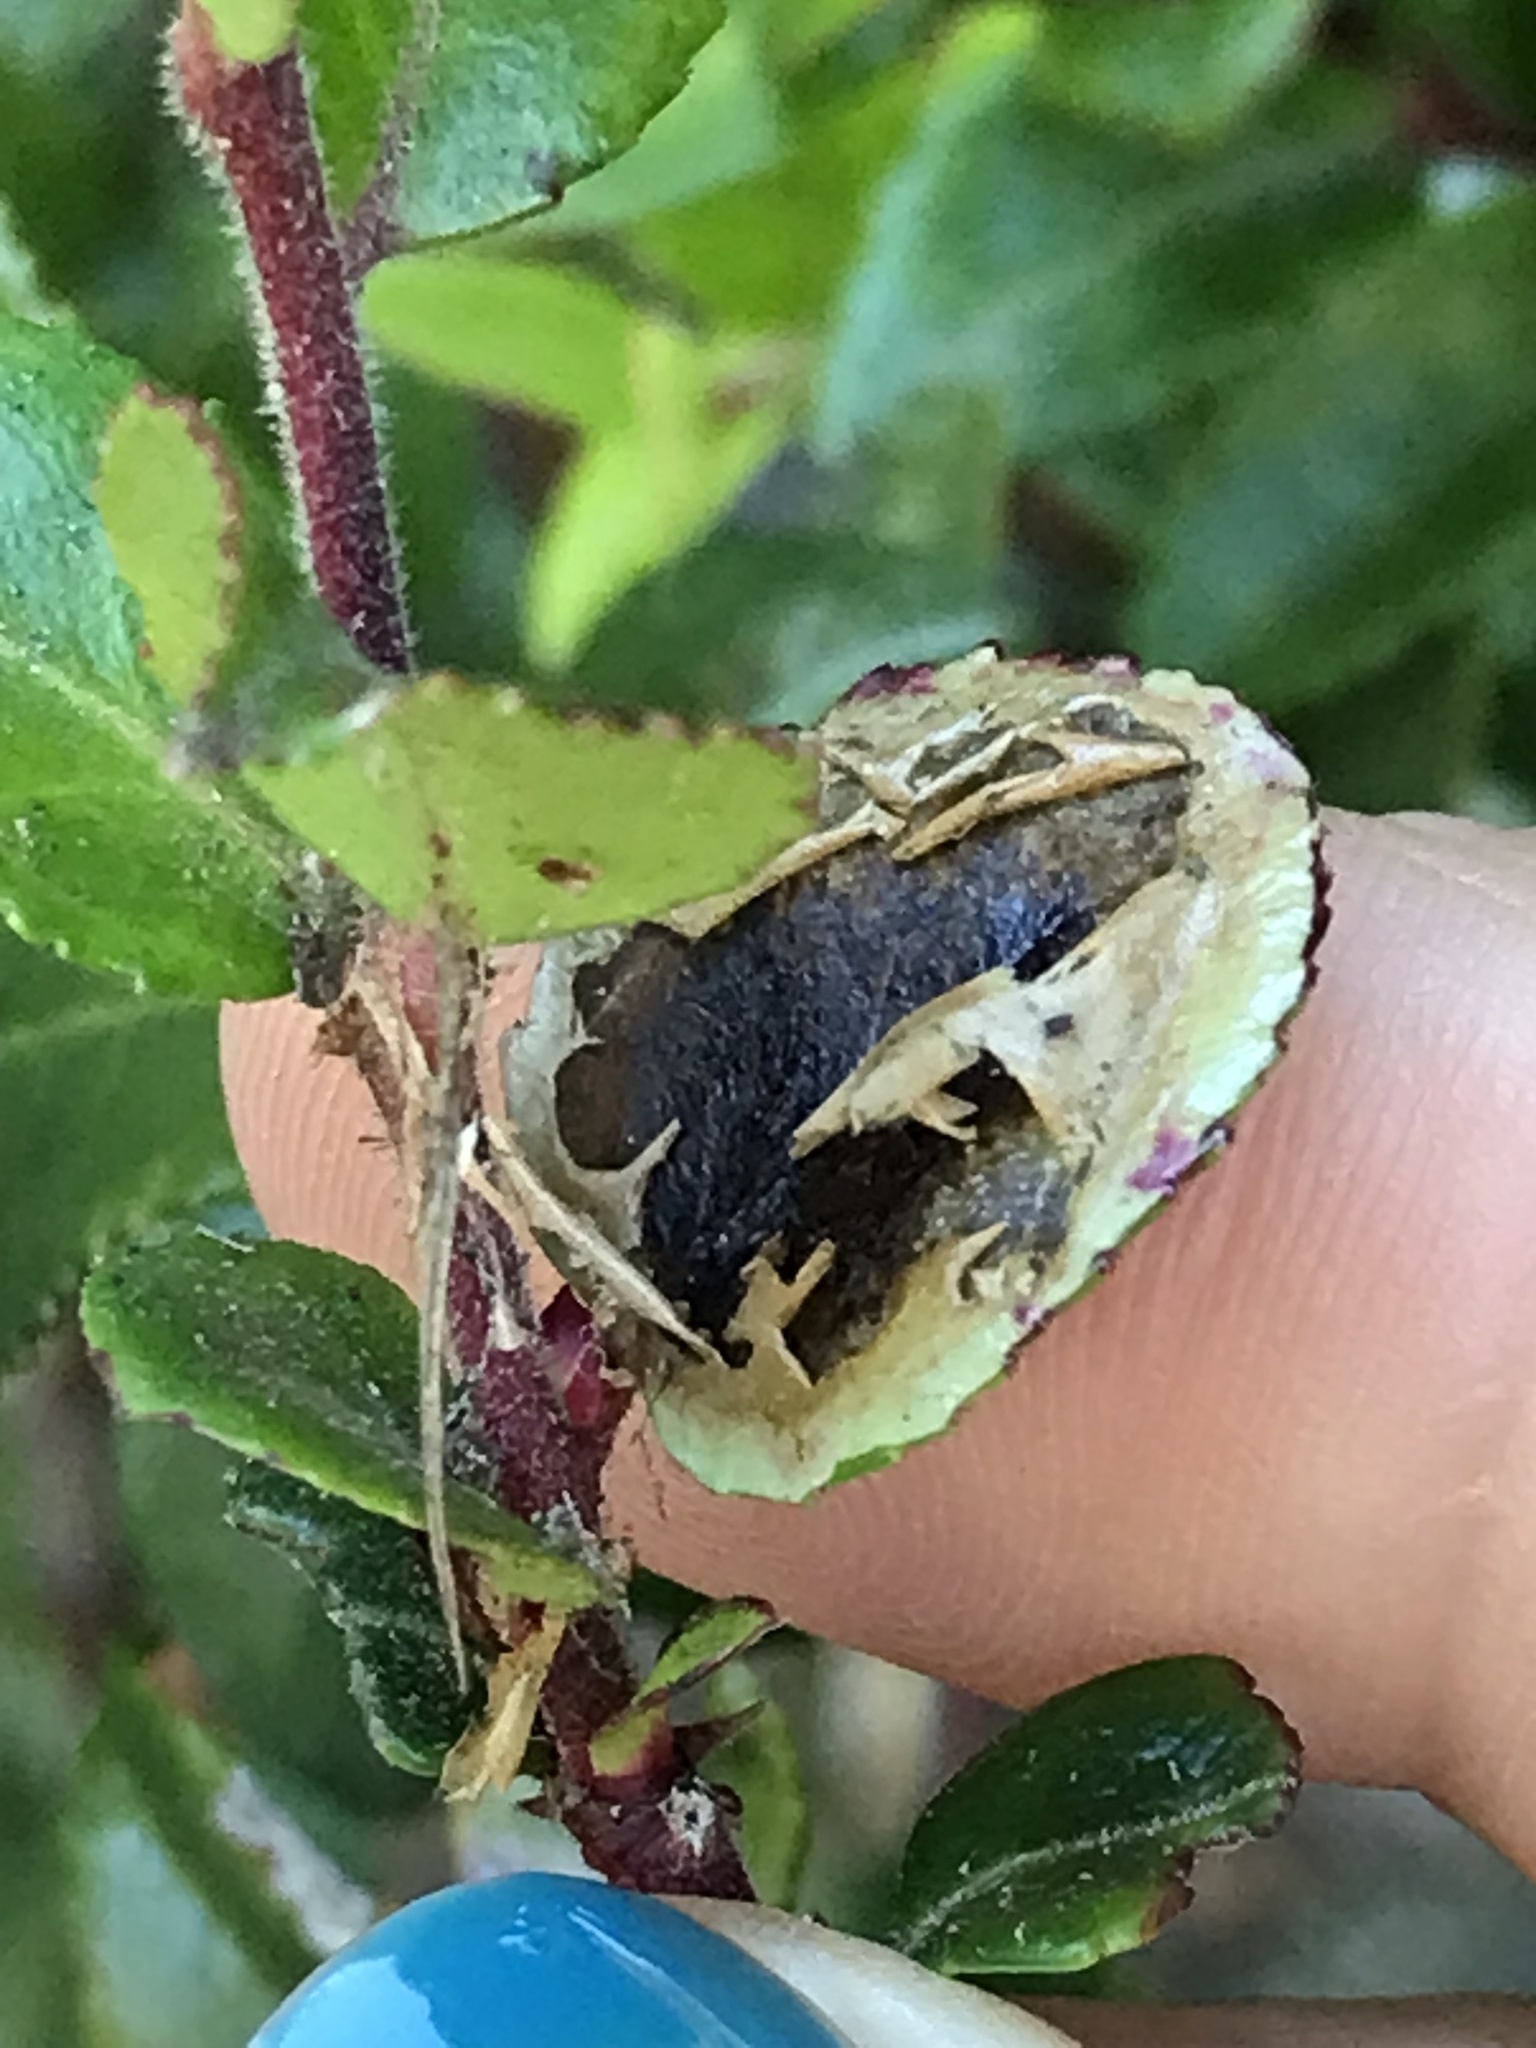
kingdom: Animalia
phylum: Arthropoda
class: Insecta
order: Lepidoptera
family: Gracillariidae
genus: Cameraria
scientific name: Cameraria nemoris
